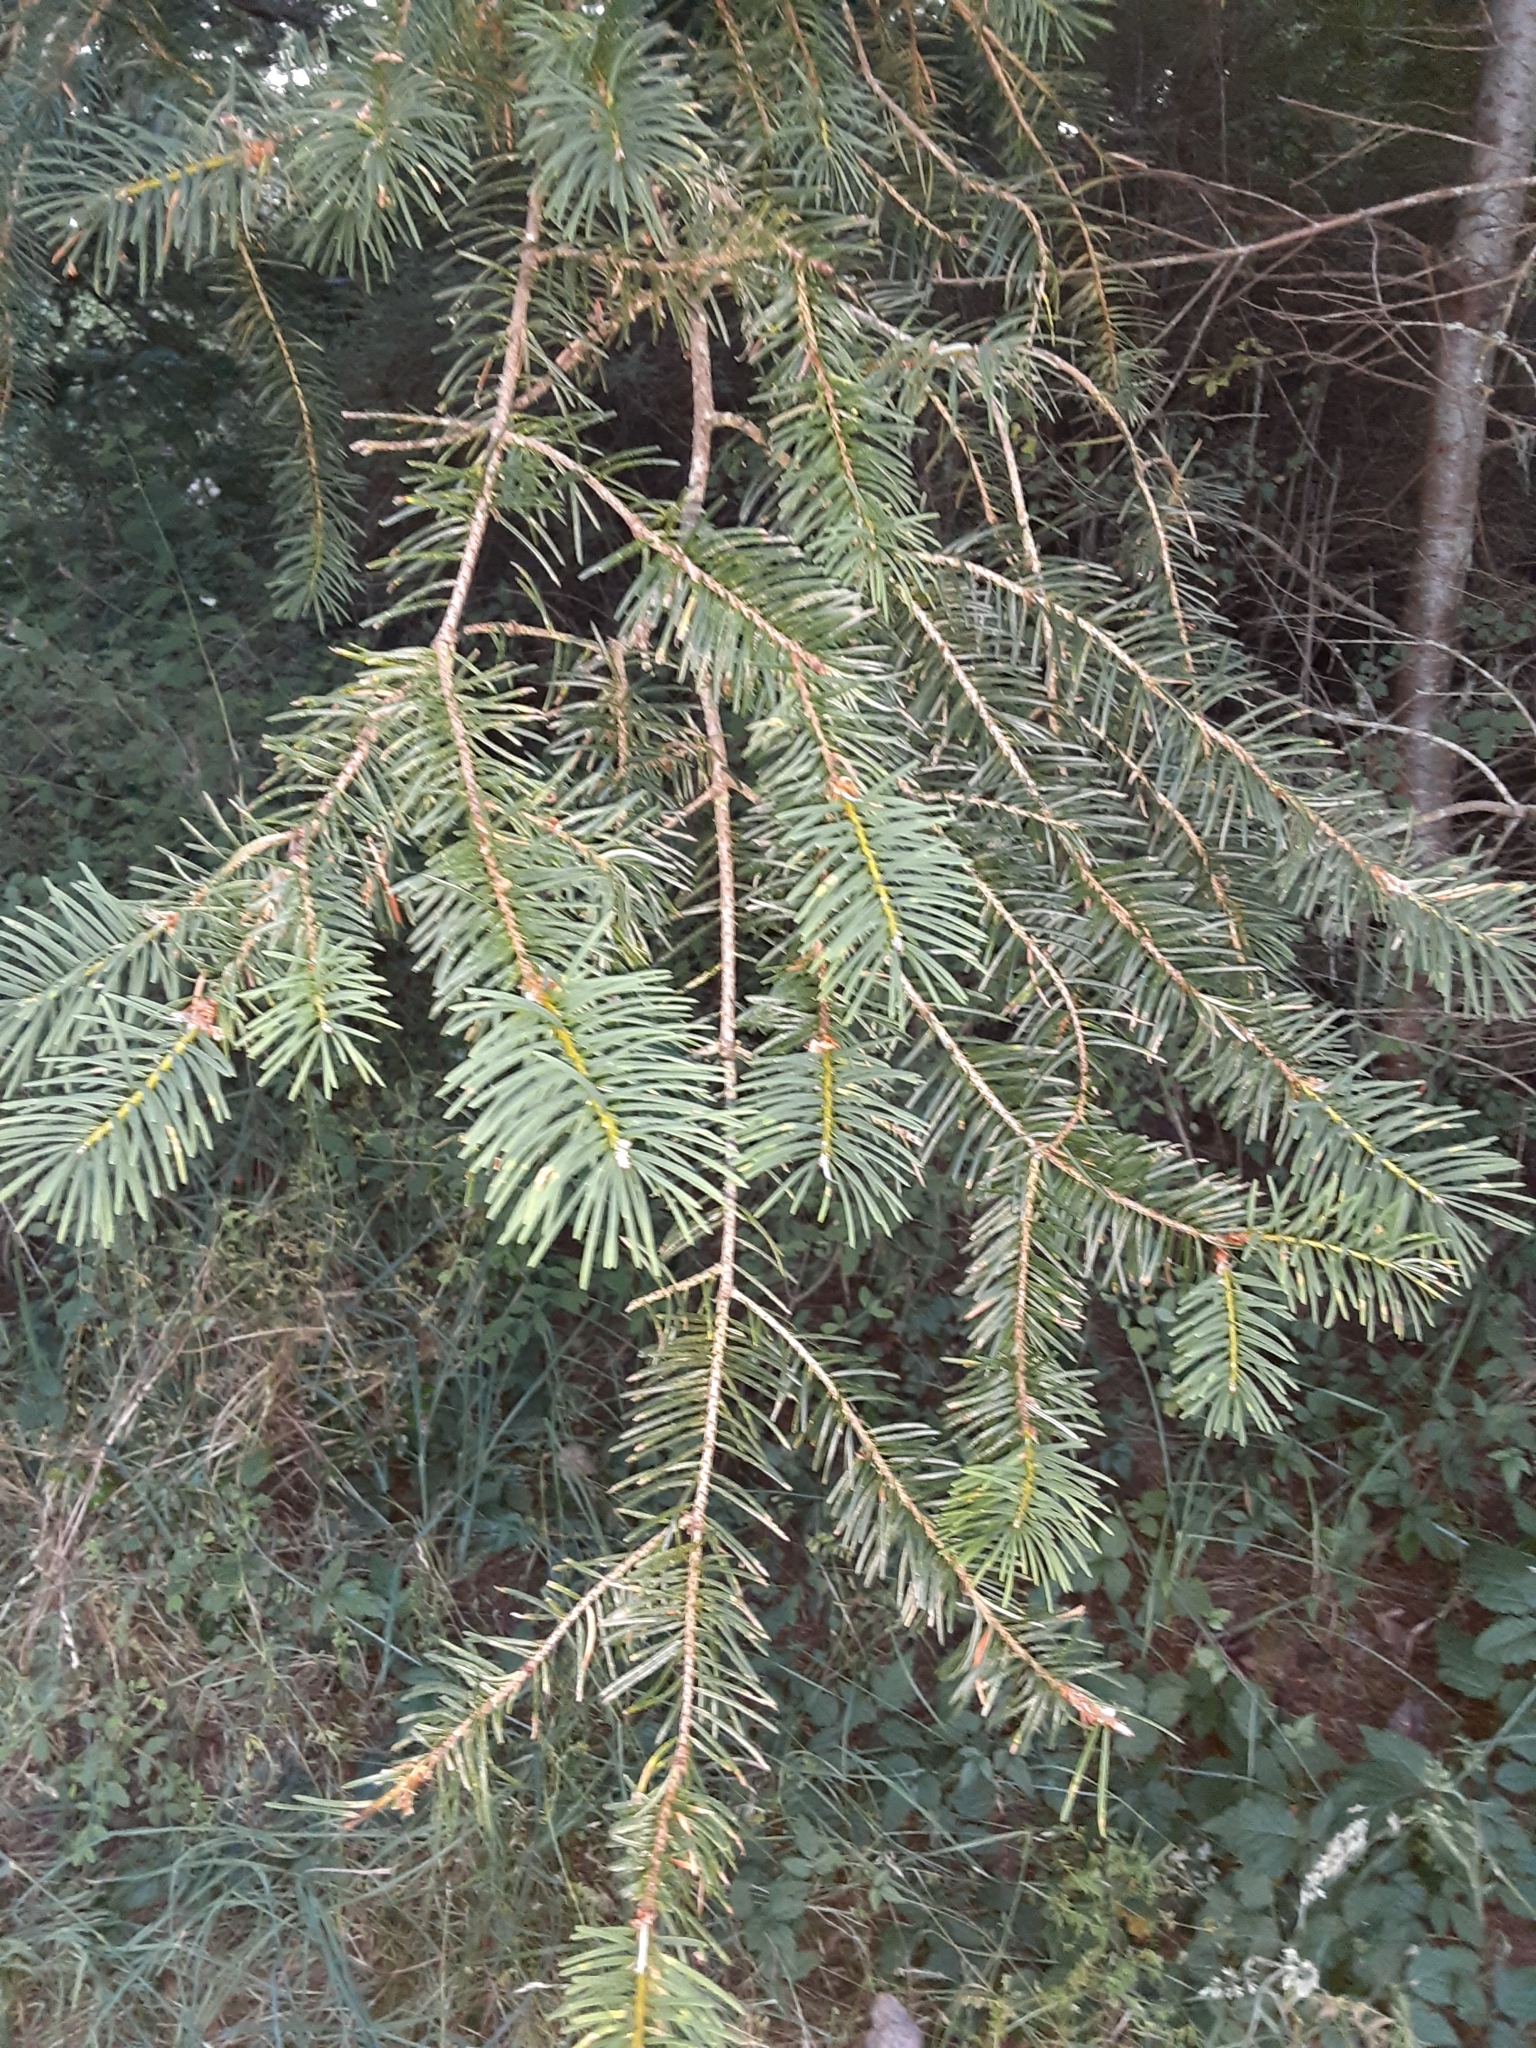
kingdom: Plantae
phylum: Tracheophyta
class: Pinopsida
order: Pinales
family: Pinaceae
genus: Pseudotsuga
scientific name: Pseudotsuga menziesii
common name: Douglas fir
